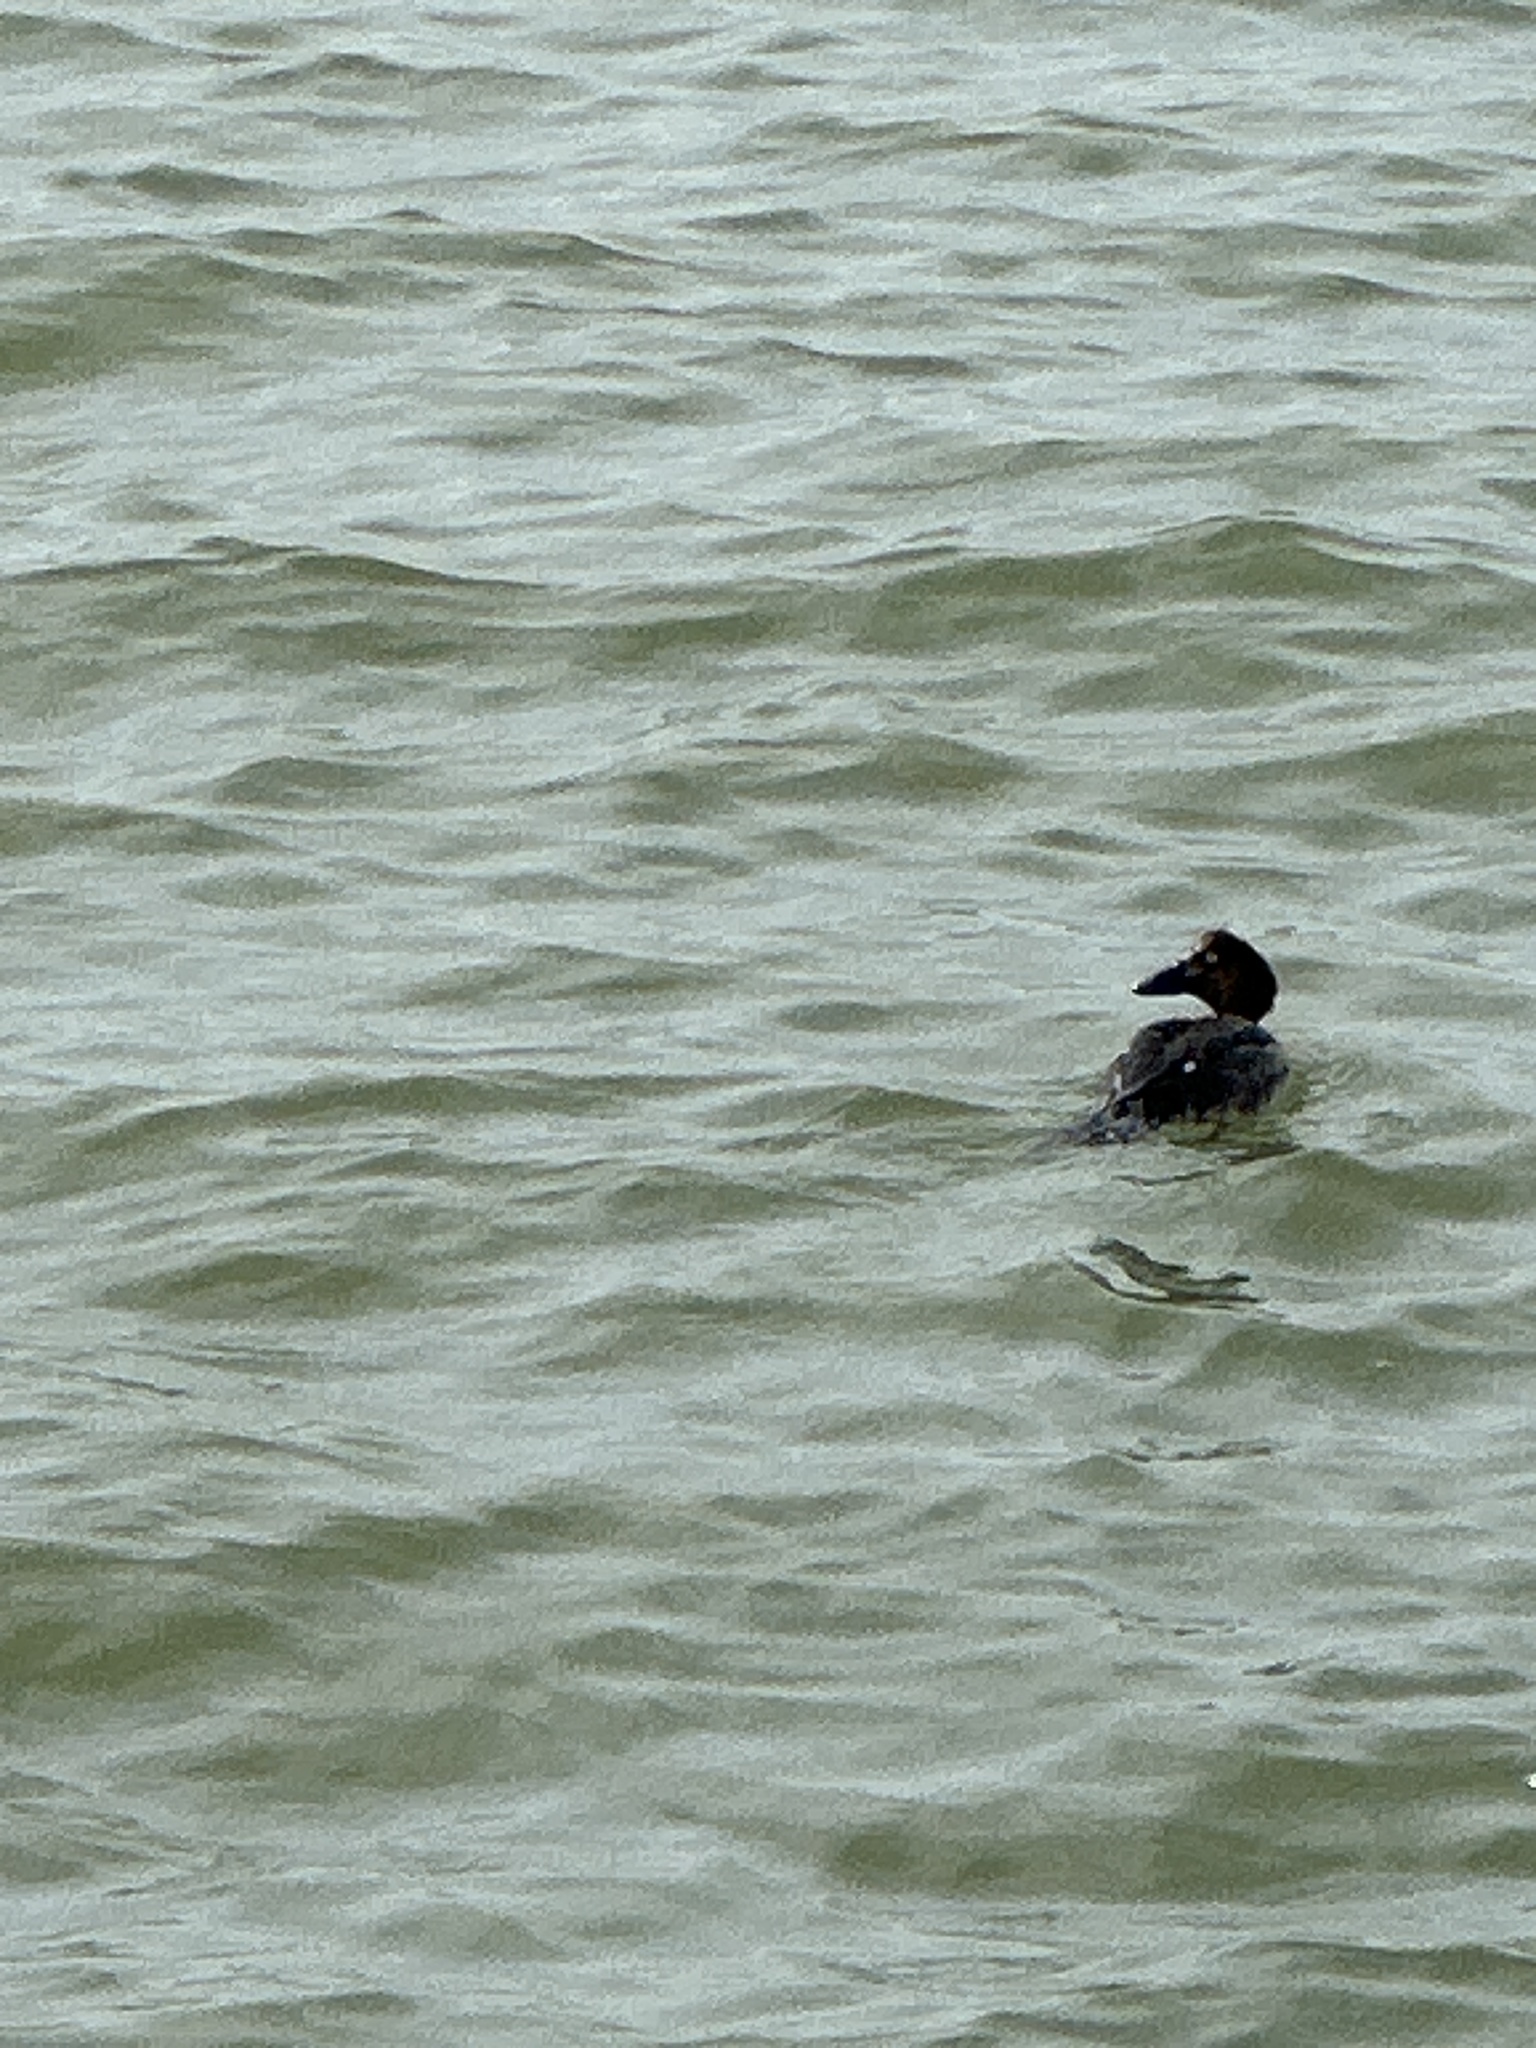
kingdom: Animalia
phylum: Chordata
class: Aves
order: Anseriformes
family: Anatidae
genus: Bucephala
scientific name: Bucephala clangula
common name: Common goldeneye
